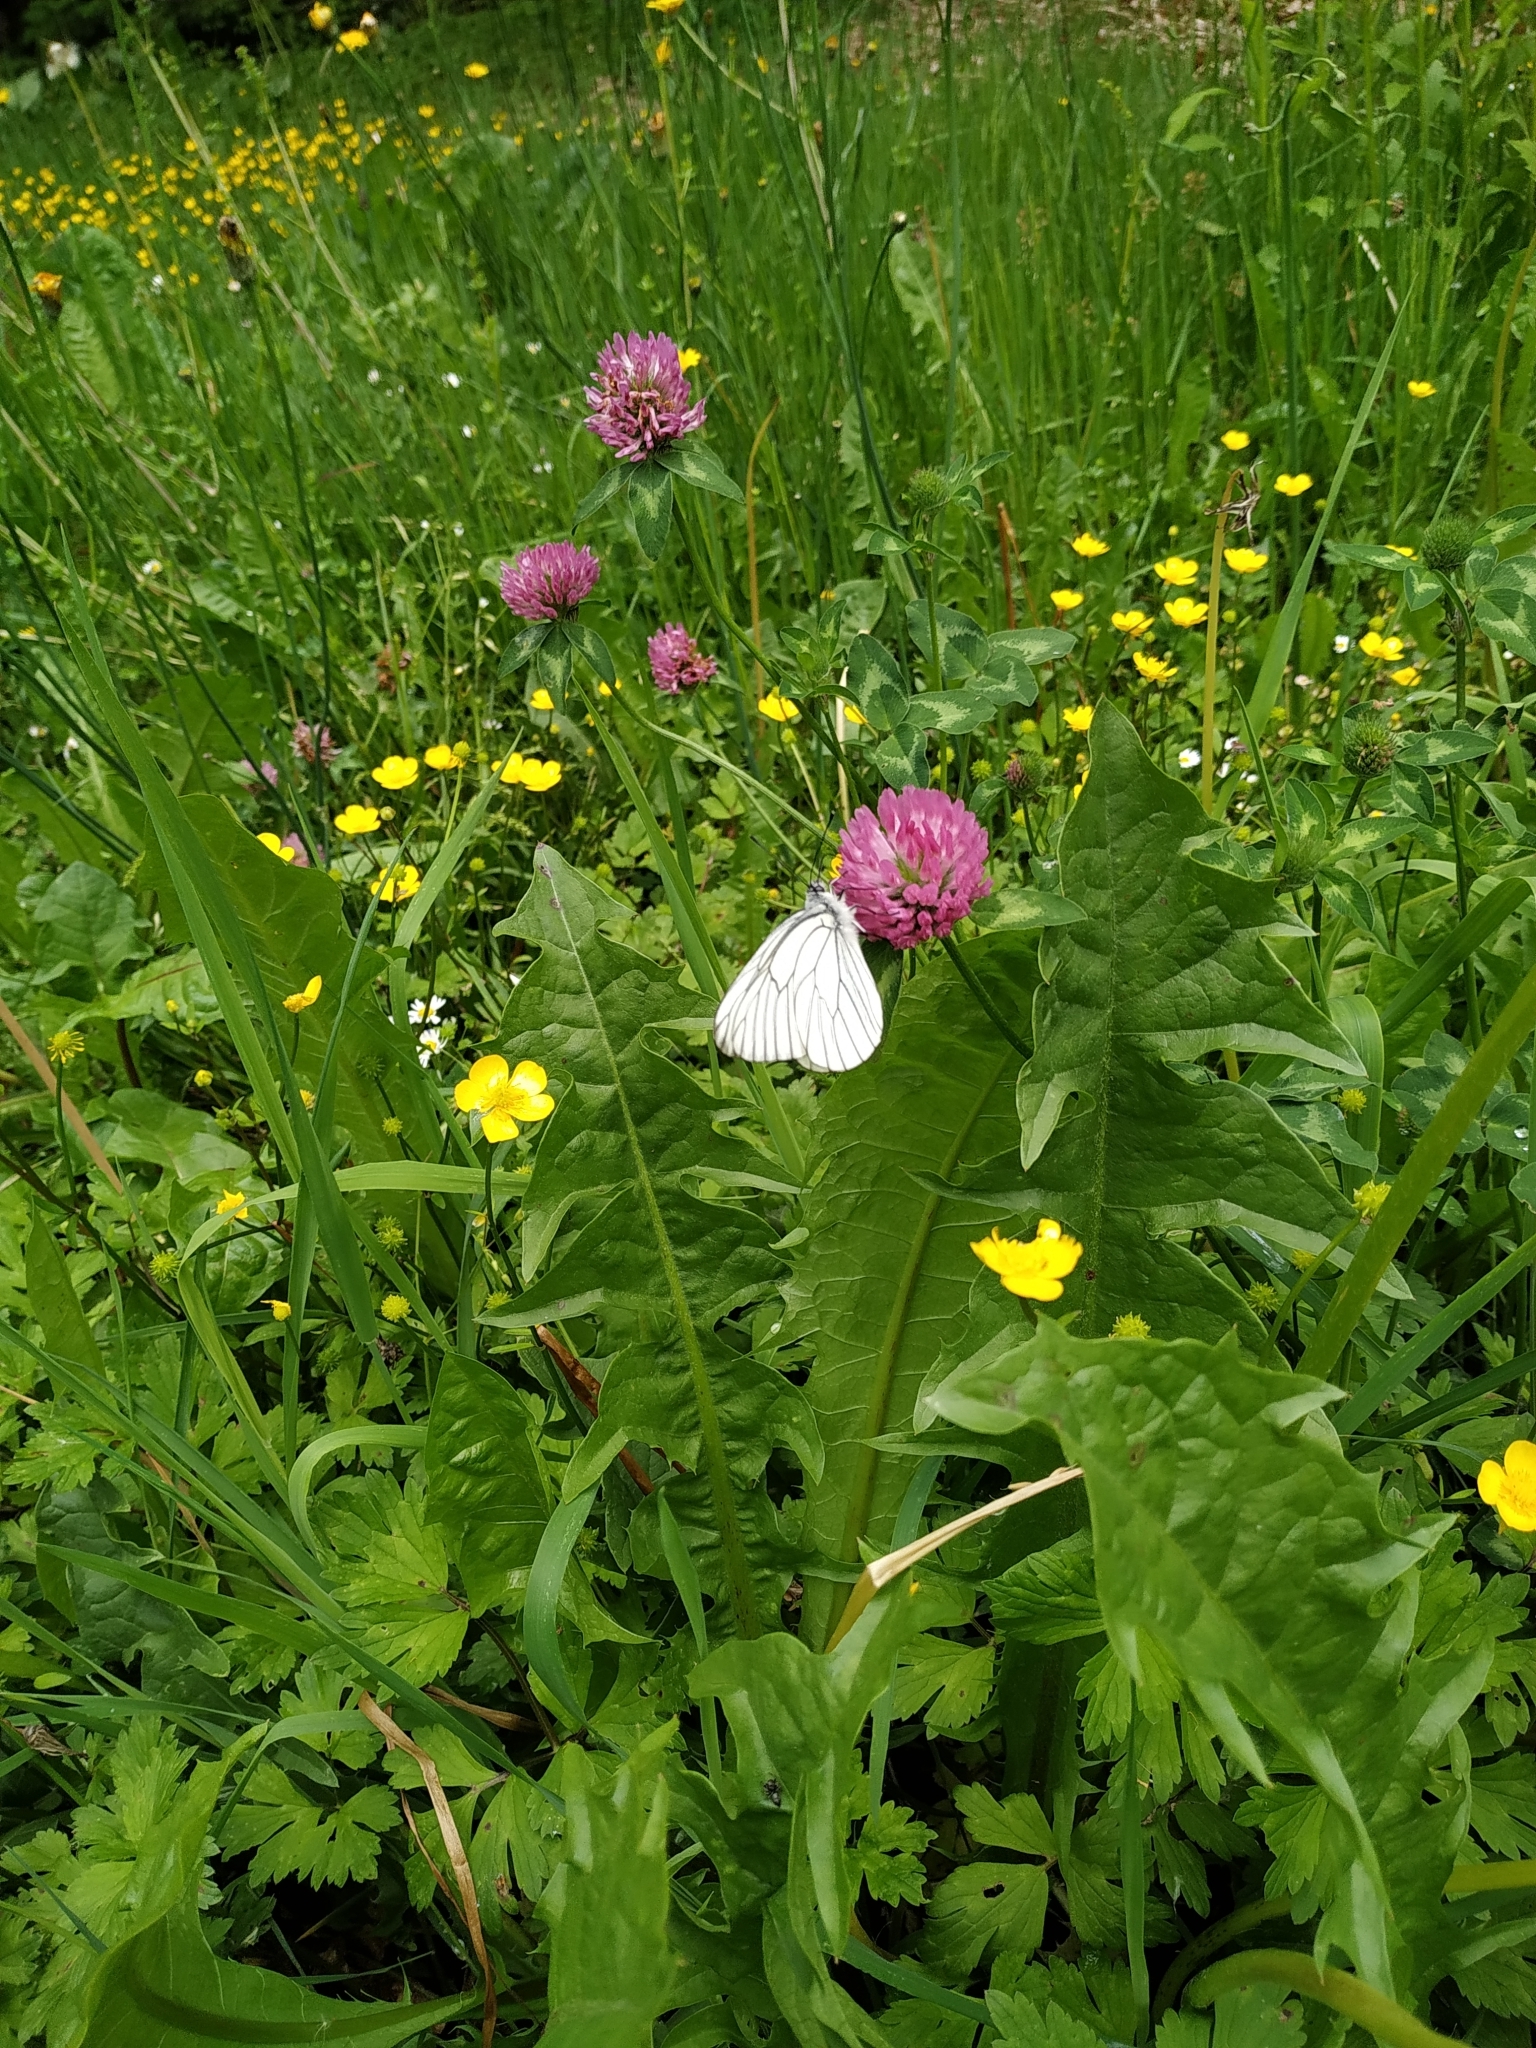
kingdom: Animalia
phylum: Arthropoda
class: Insecta
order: Lepidoptera
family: Pieridae
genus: Aporia
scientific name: Aporia crataegi
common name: Black-veined white
